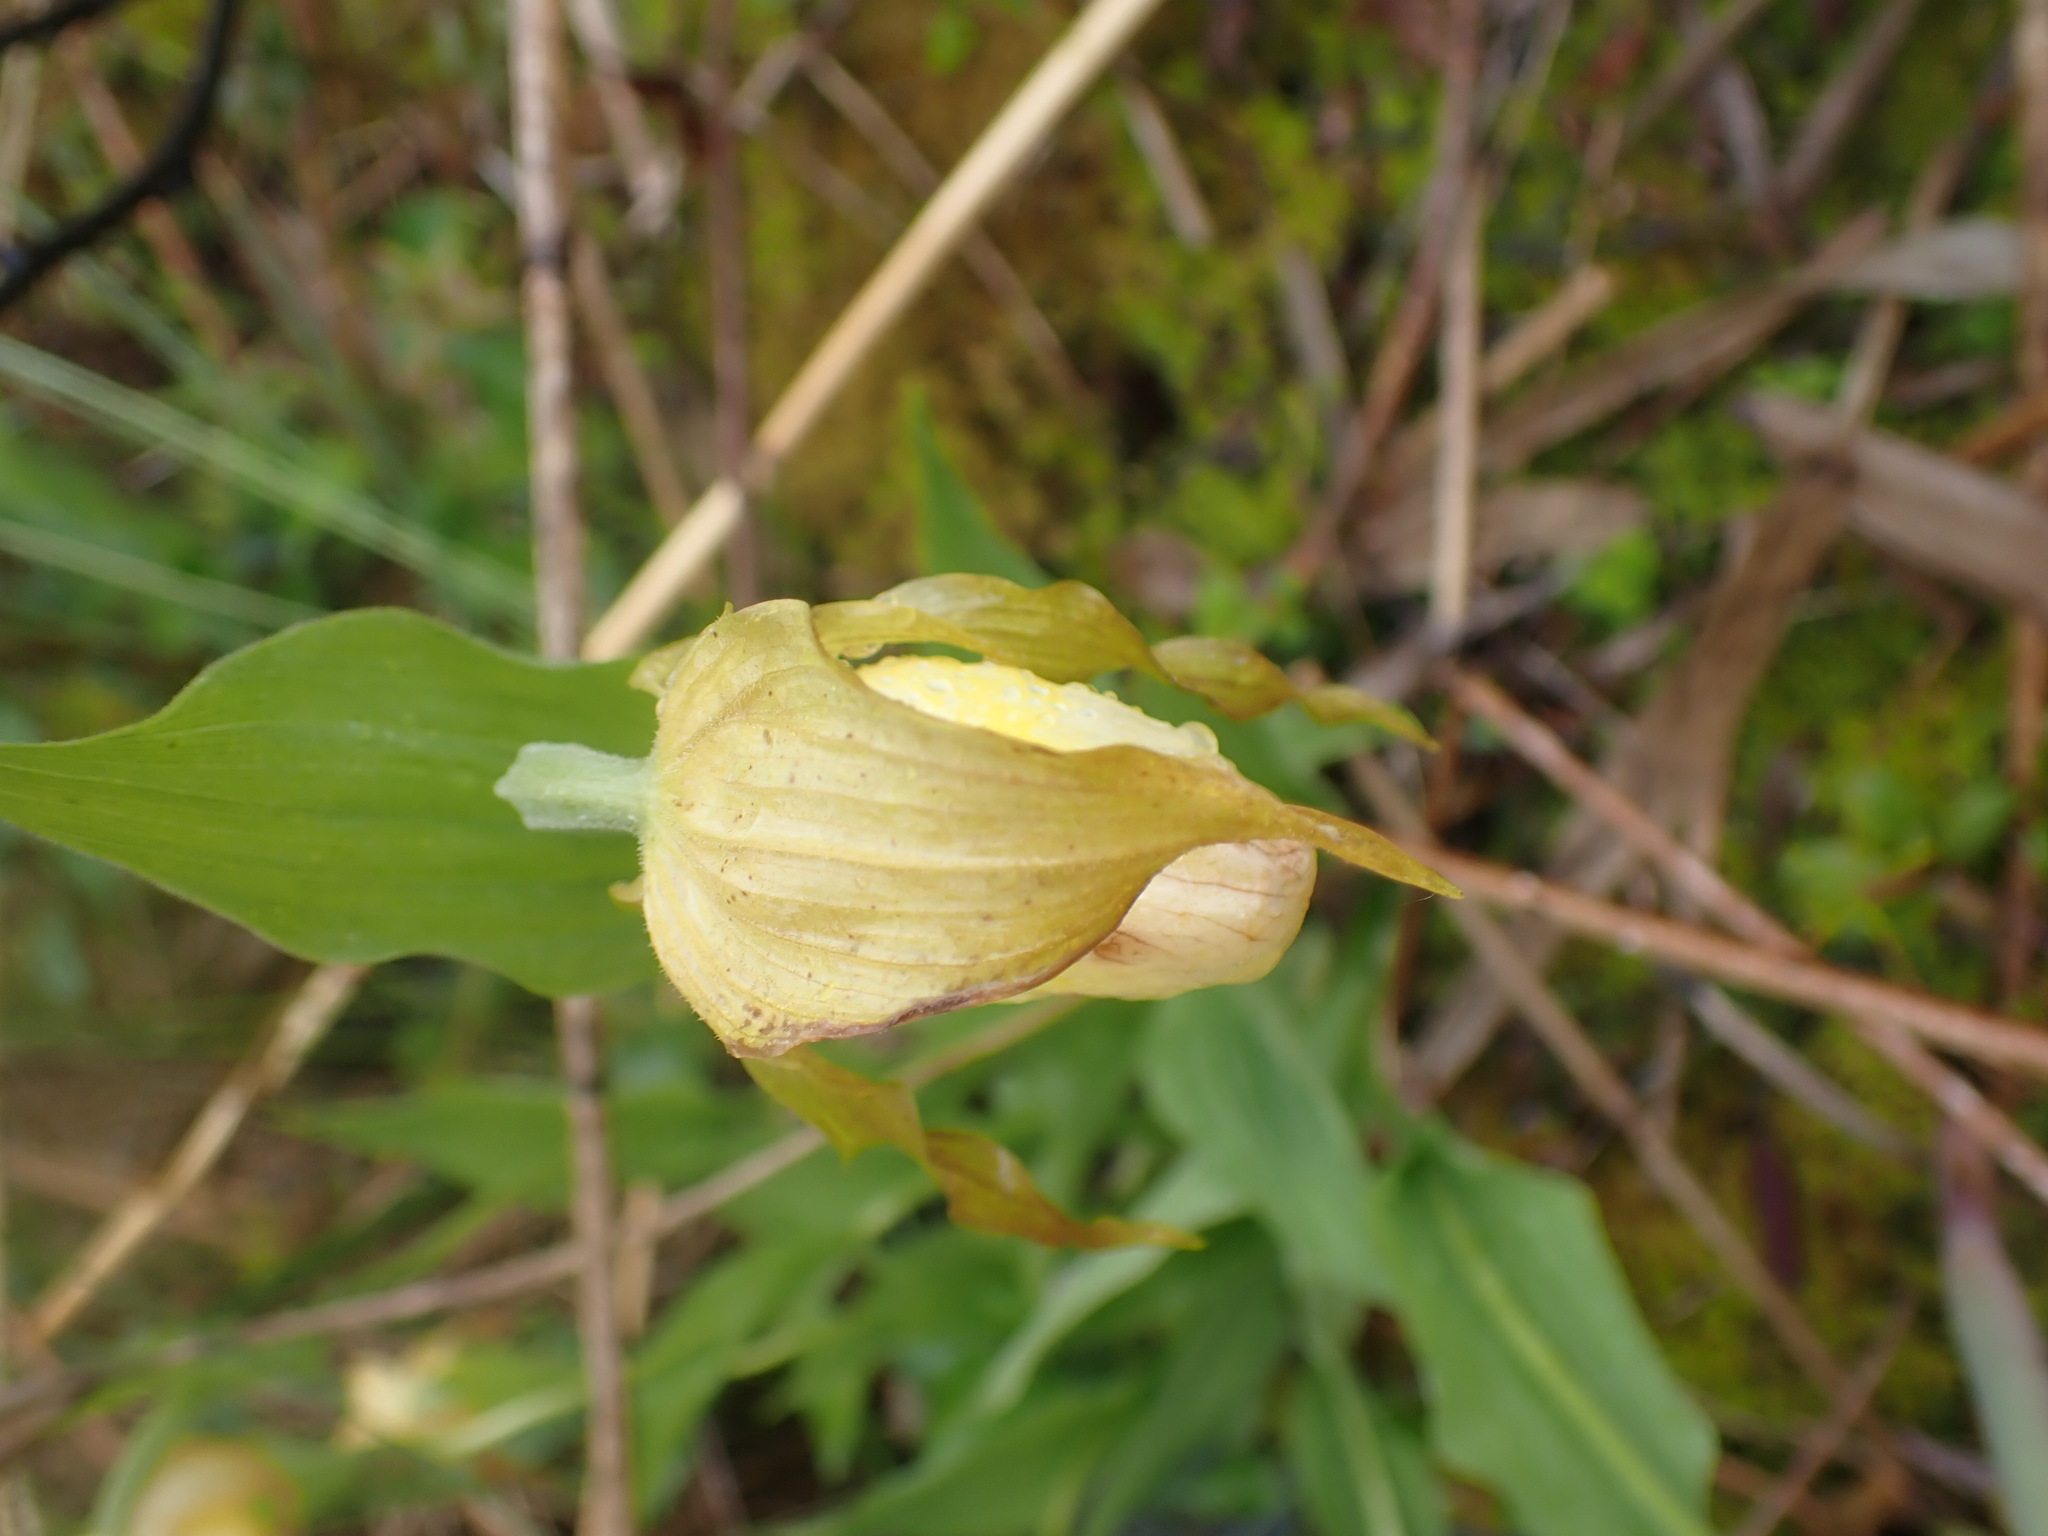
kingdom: Plantae
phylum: Tracheophyta
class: Liliopsida
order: Asparagales
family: Orchidaceae
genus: Cypripedium
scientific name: Cypripedium parviflorum
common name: American yellow lady's-slipper
